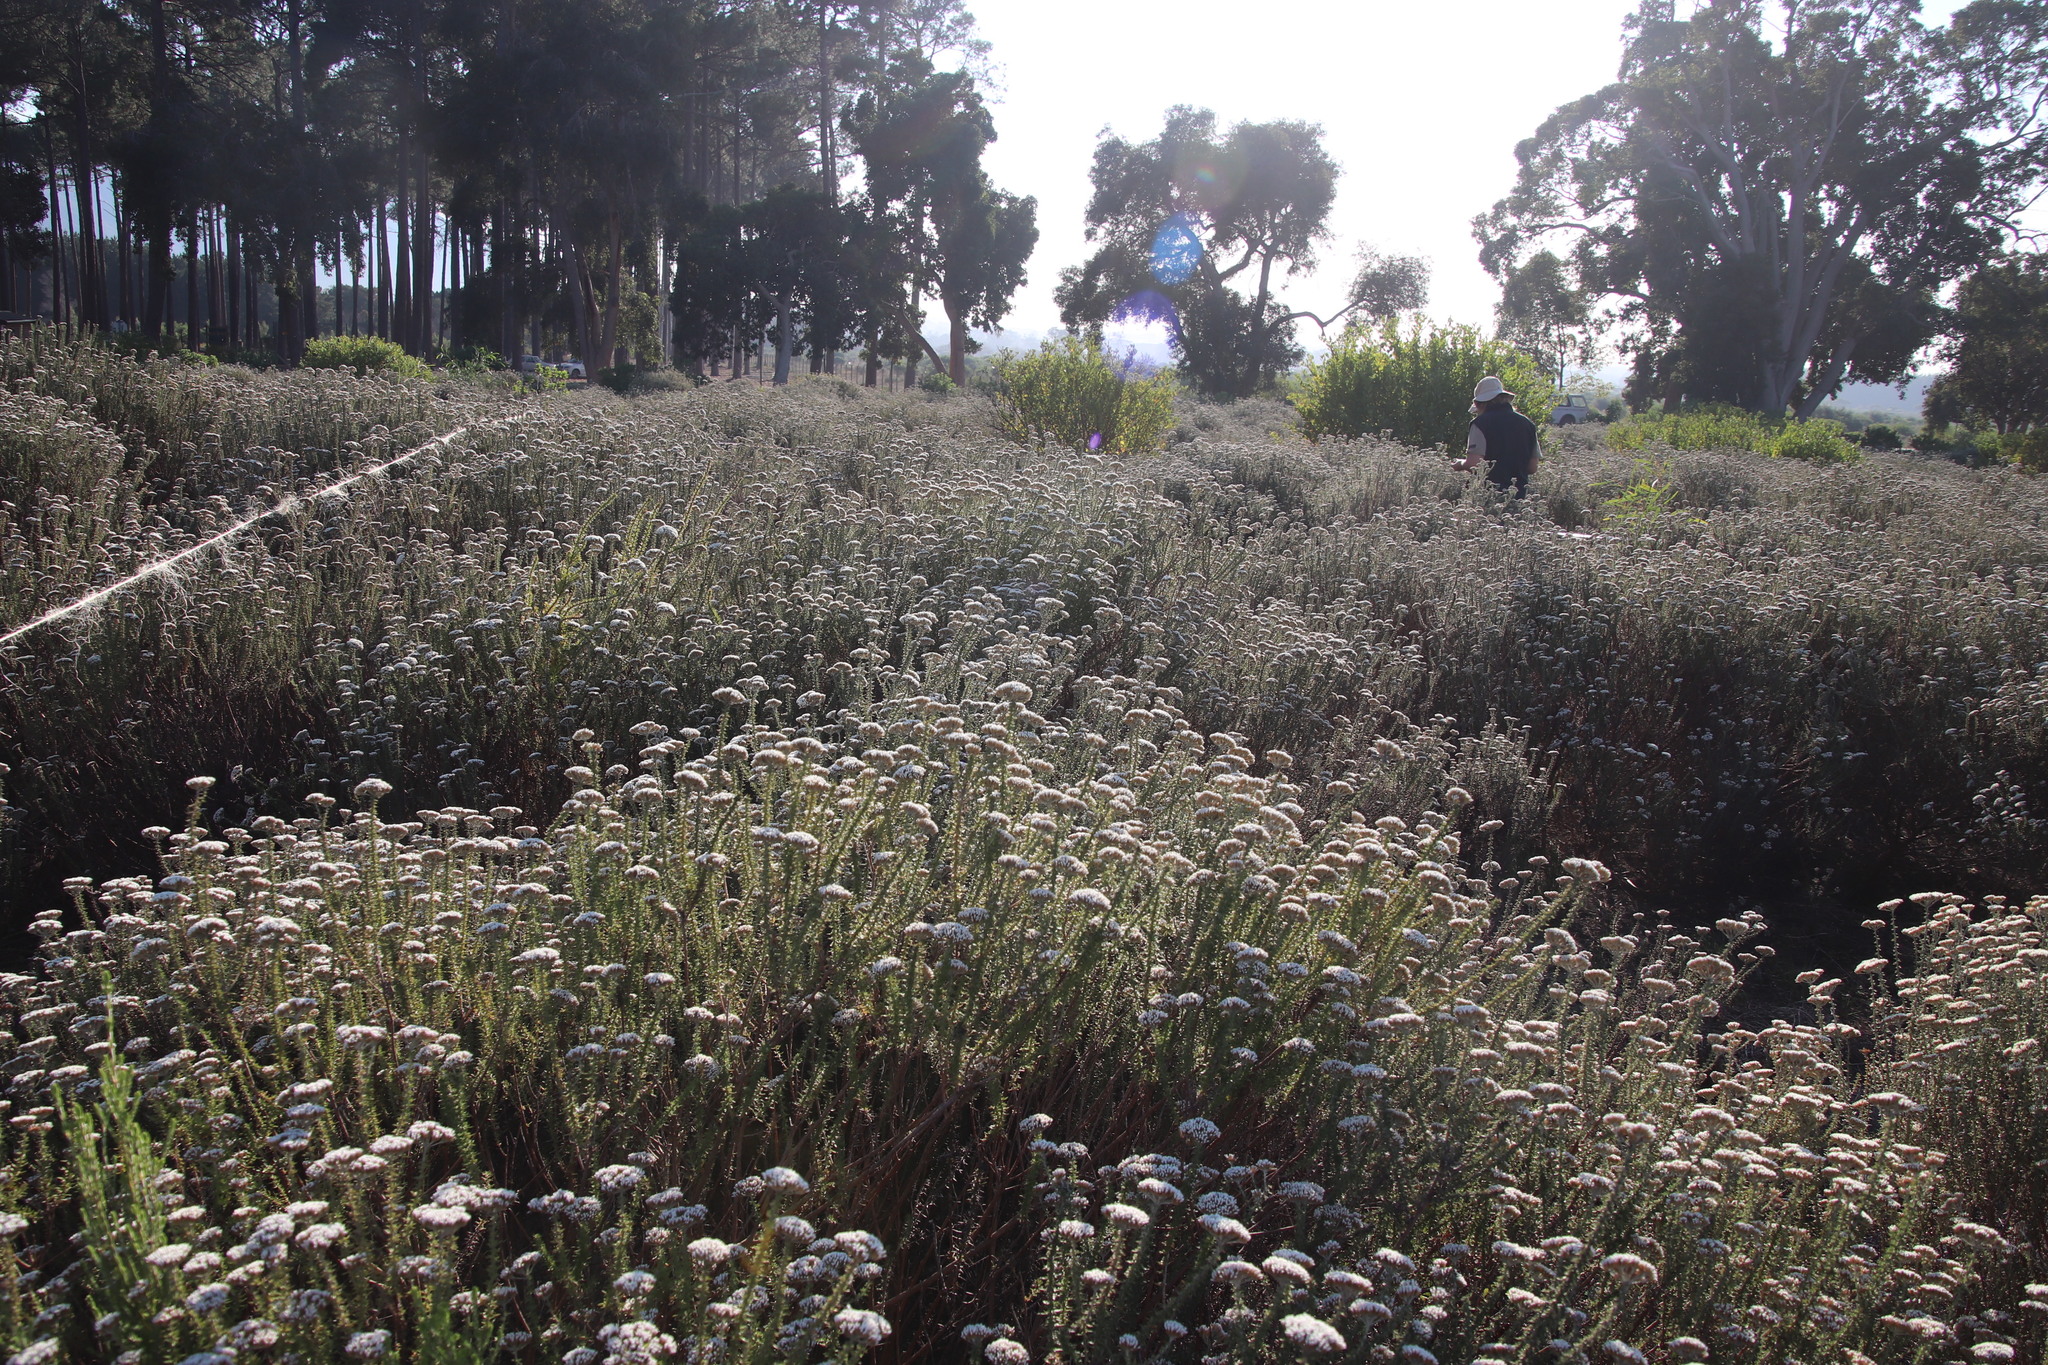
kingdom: Plantae
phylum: Tracheophyta
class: Magnoliopsida
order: Asterales
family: Asteraceae
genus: Metalasia
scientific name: Metalasia densa
